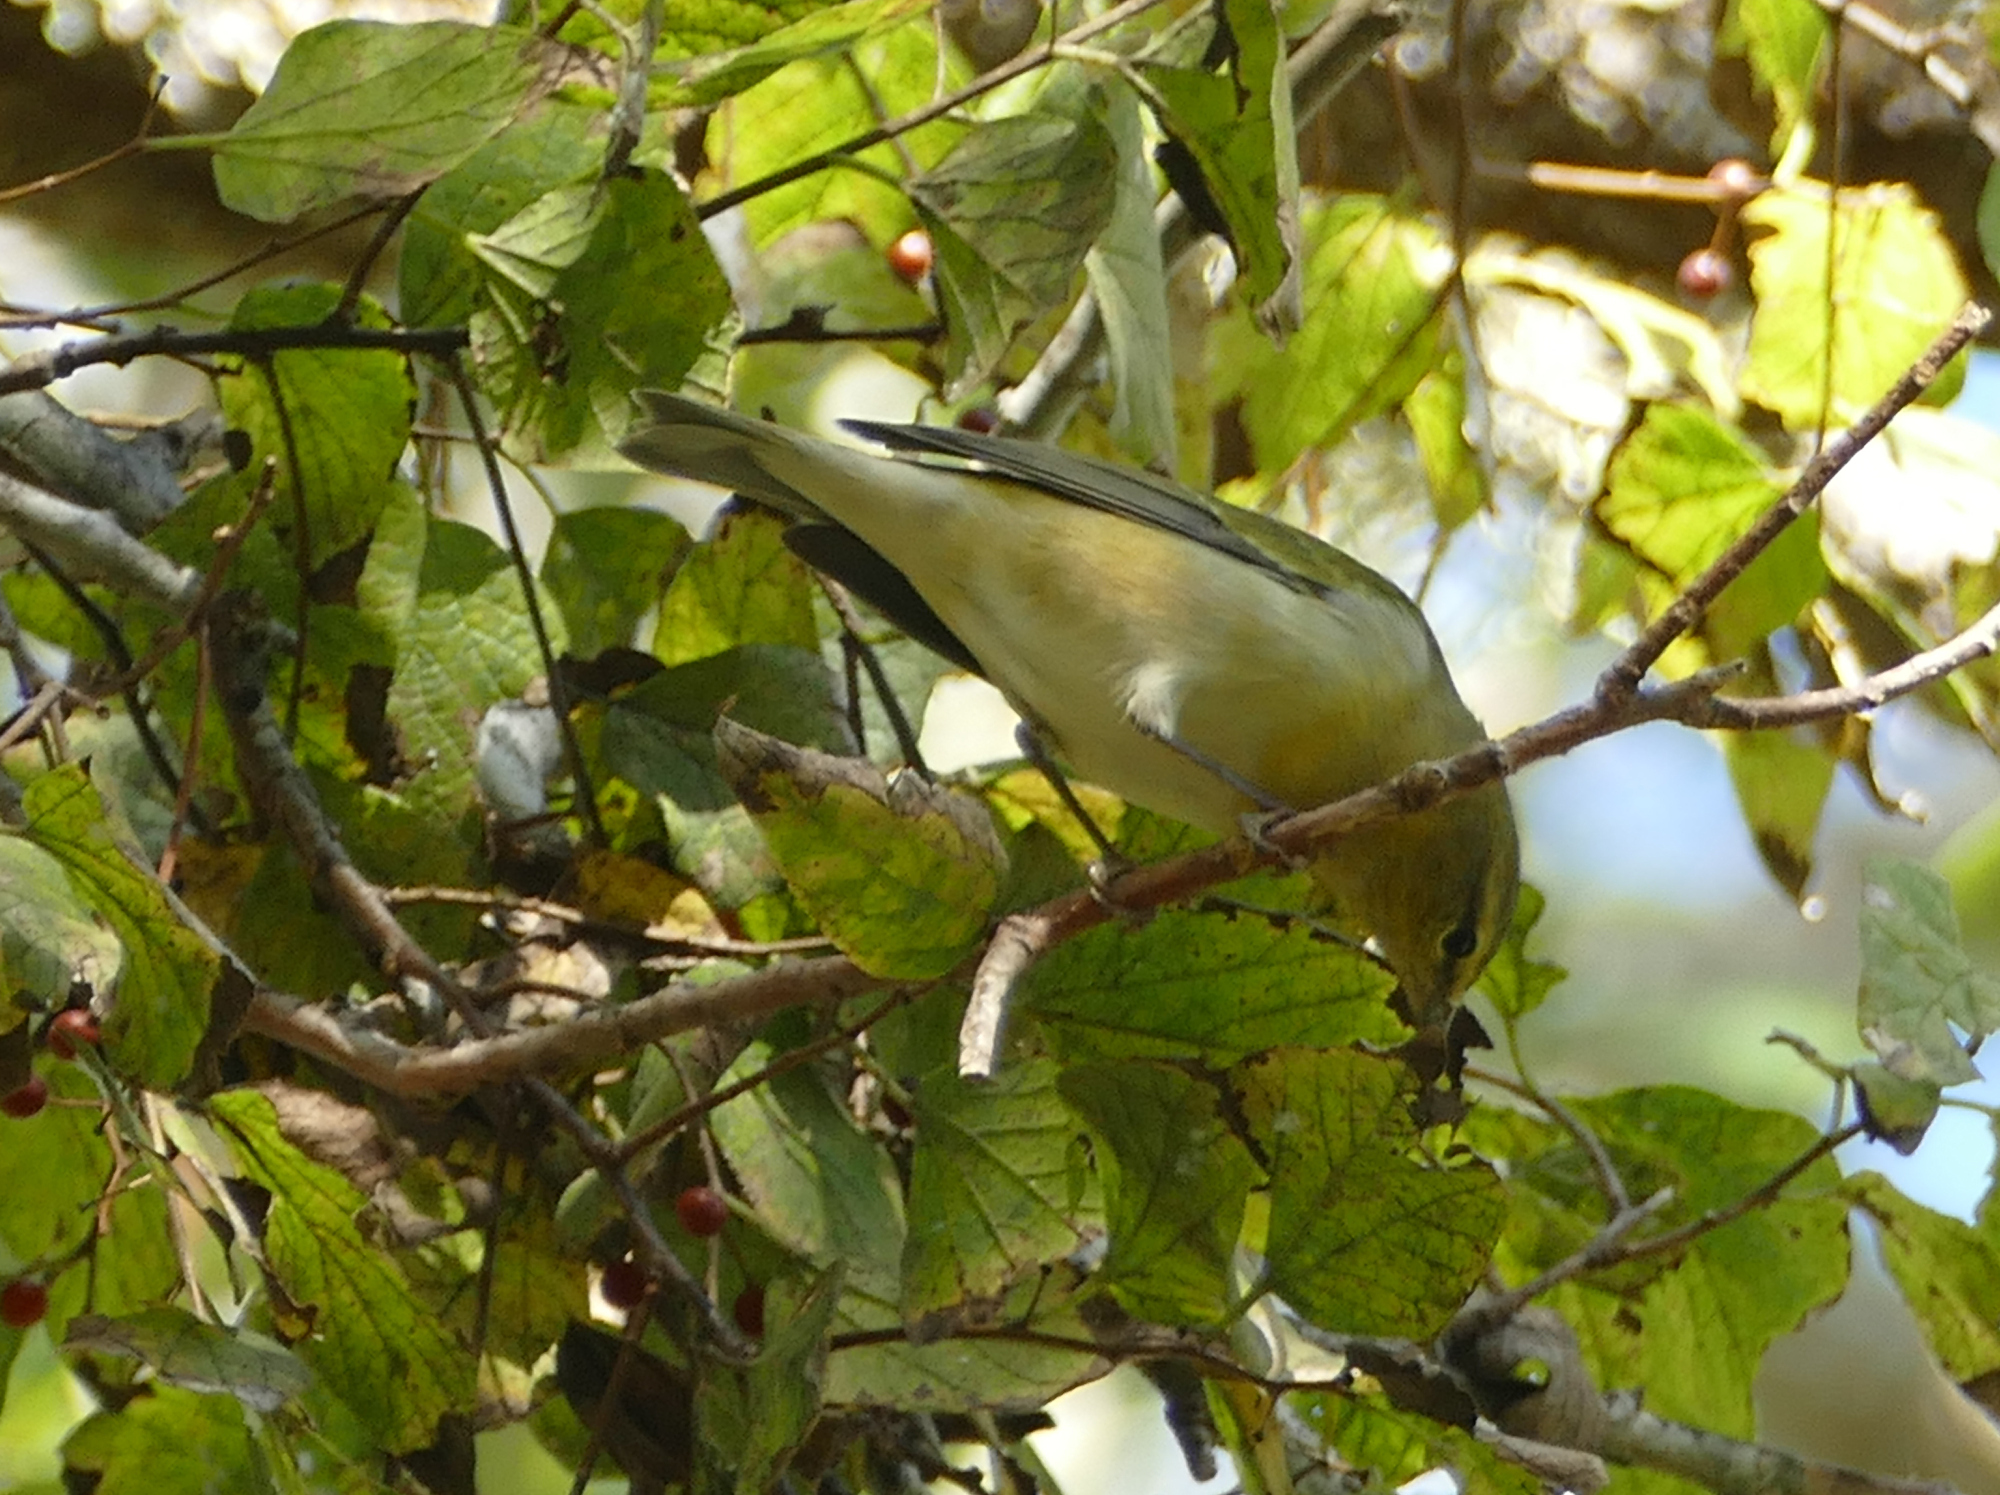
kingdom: Animalia
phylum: Chordata
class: Aves
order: Passeriformes
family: Parulidae
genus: Leiothlypis
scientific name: Leiothlypis peregrina
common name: Tennessee warbler
